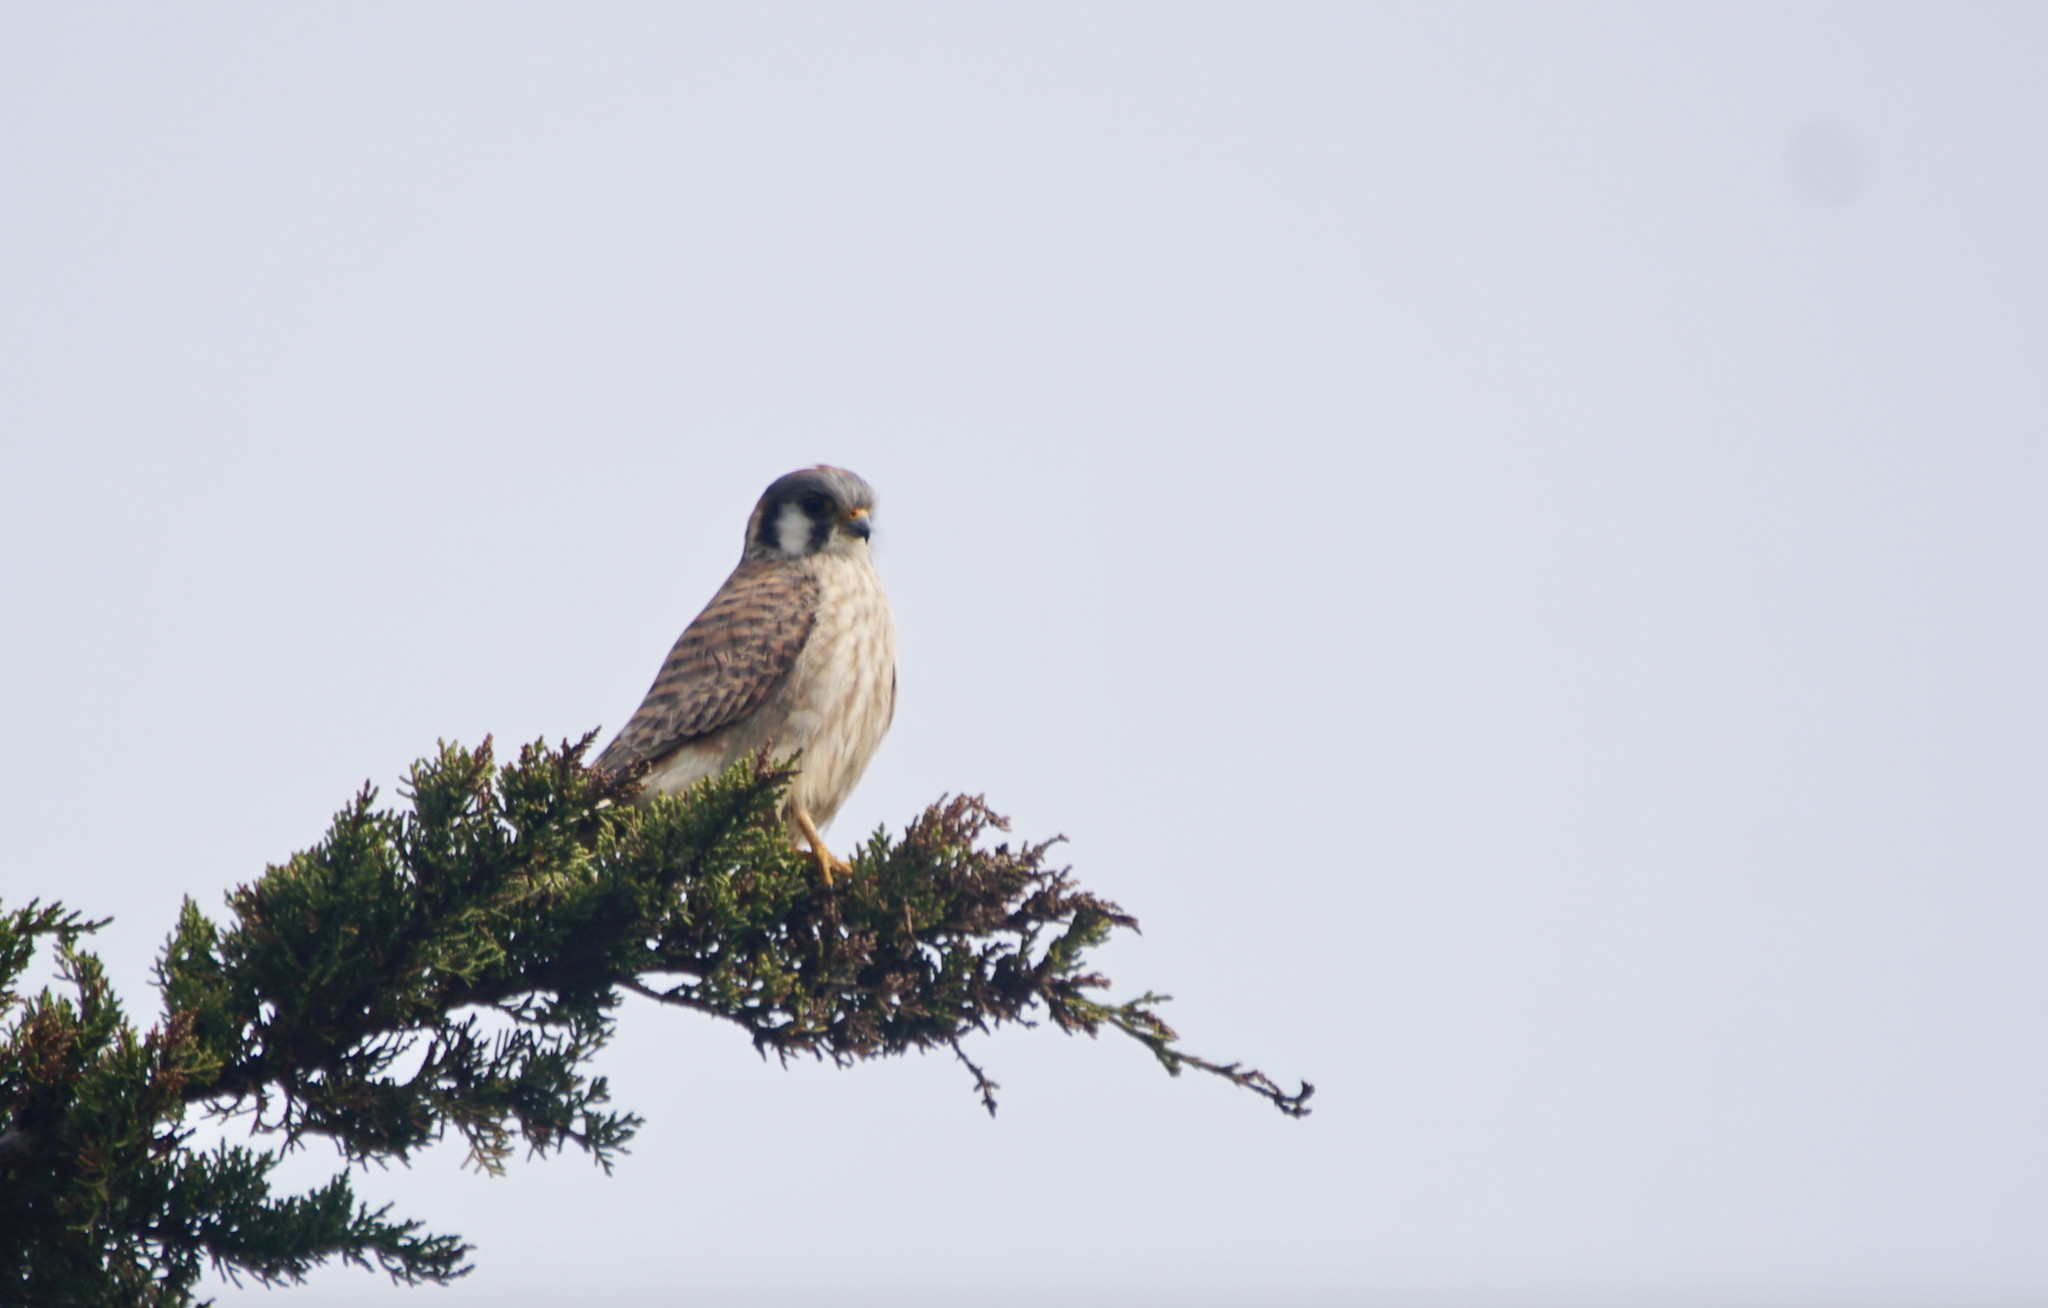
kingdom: Animalia
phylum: Chordata
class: Aves
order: Falconiformes
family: Falconidae
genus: Falco
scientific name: Falco sparverius
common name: American kestrel
